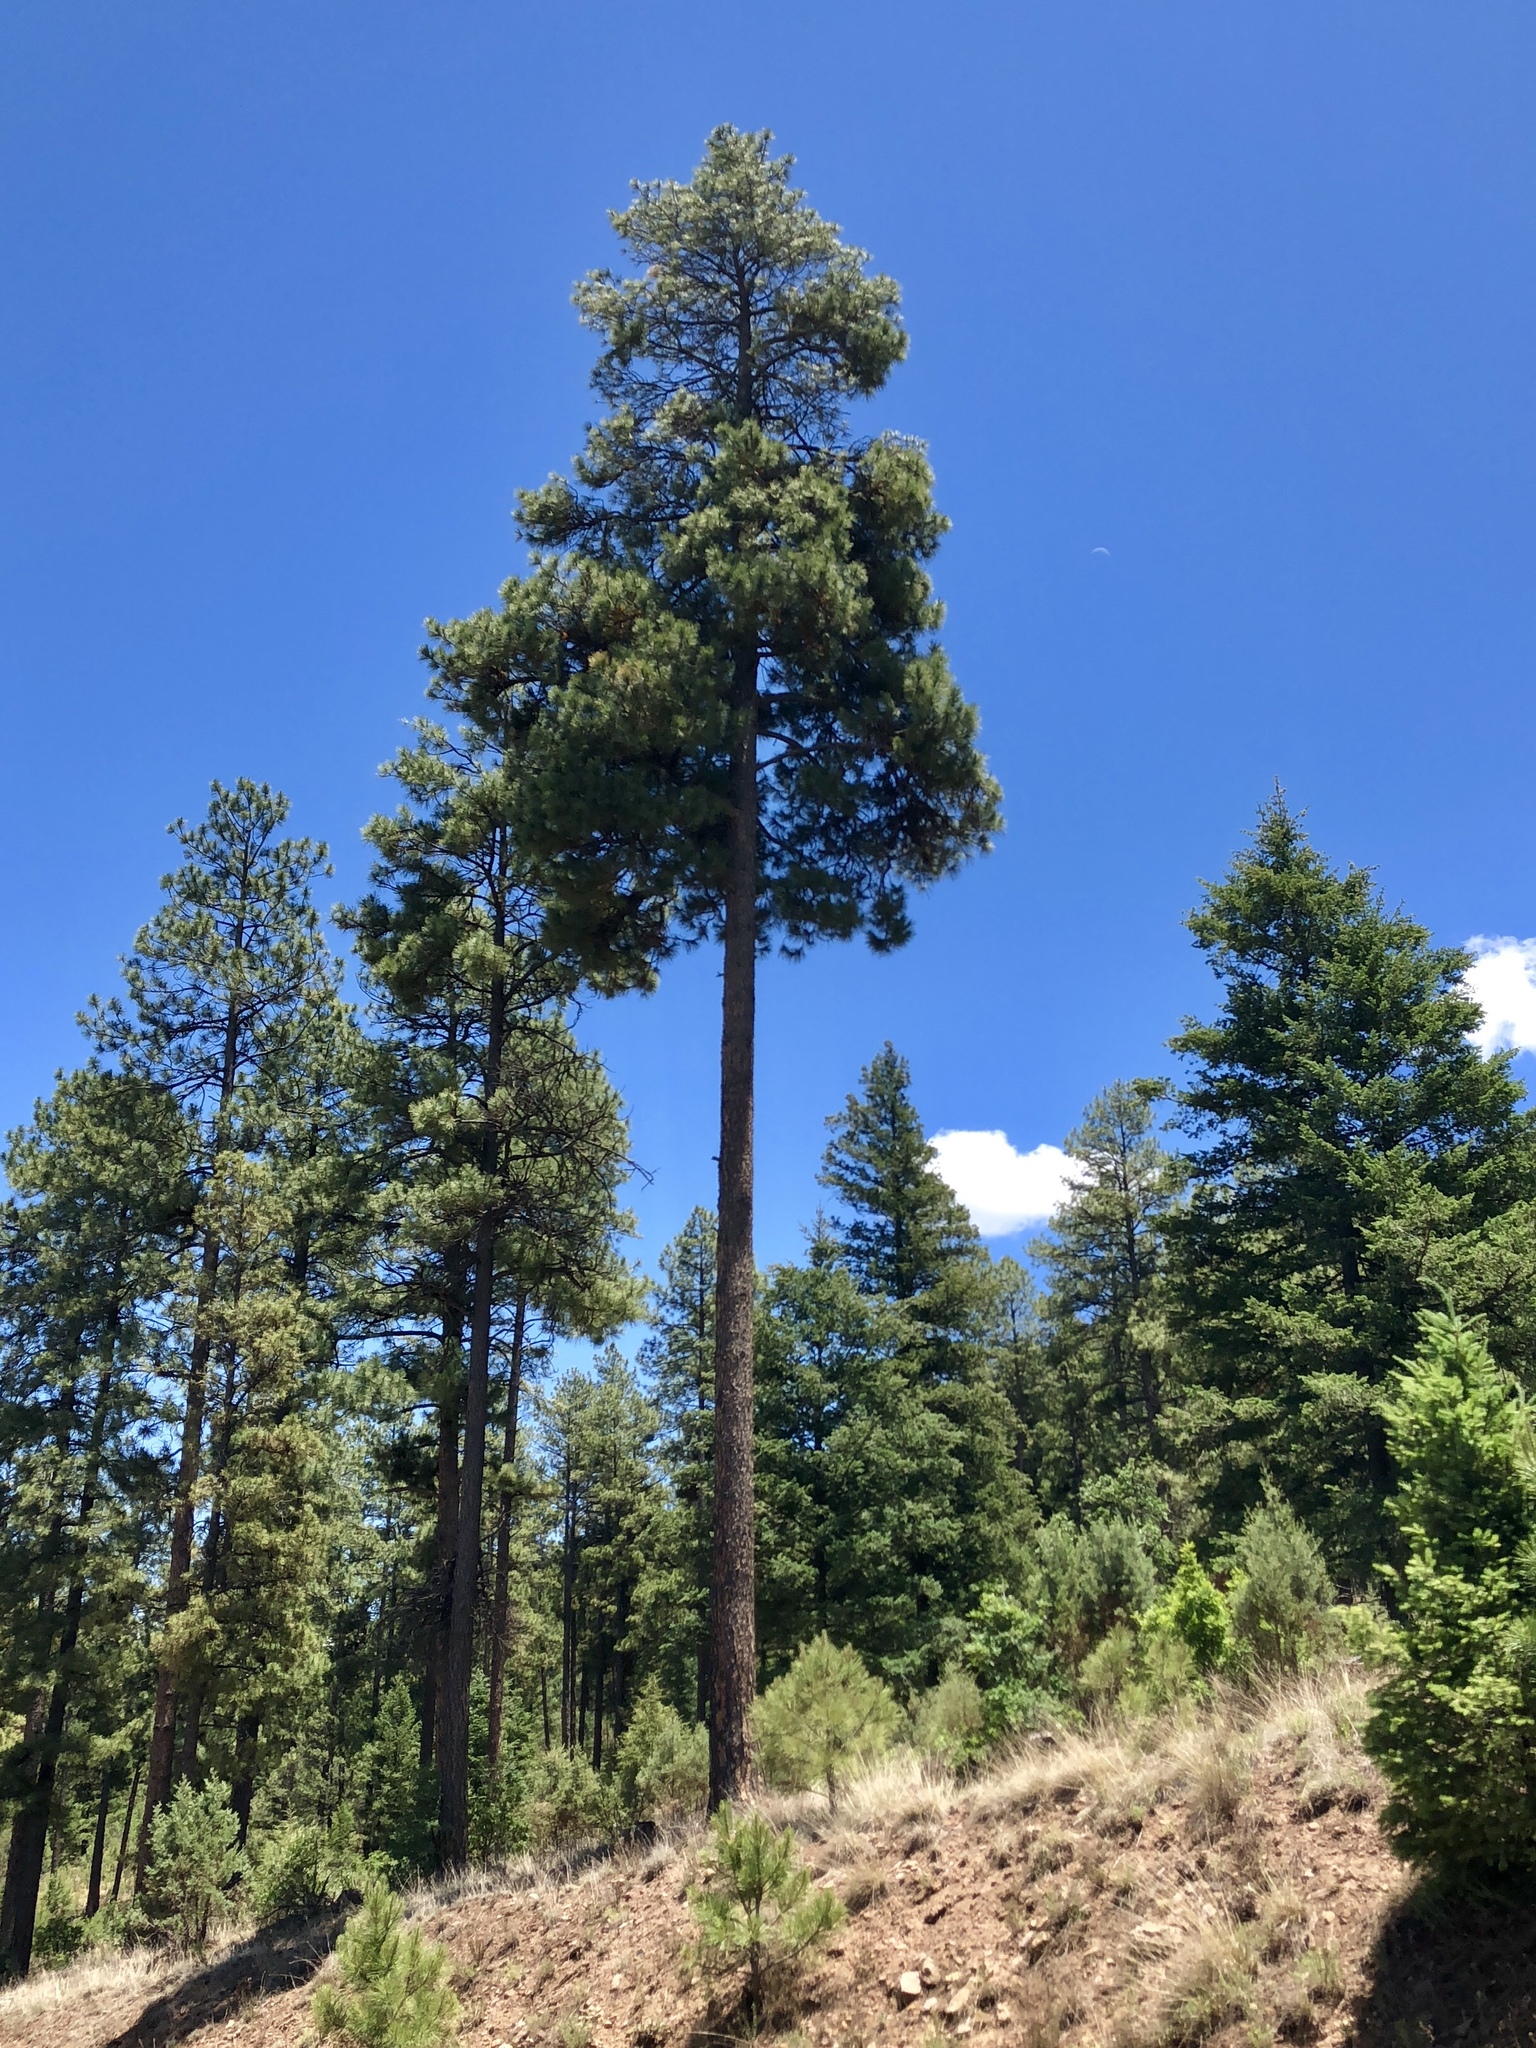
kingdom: Plantae
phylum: Tracheophyta
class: Pinopsida
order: Pinales
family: Pinaceae
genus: Pinus
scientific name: Pinus ponderosa
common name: Western yellow-pine
